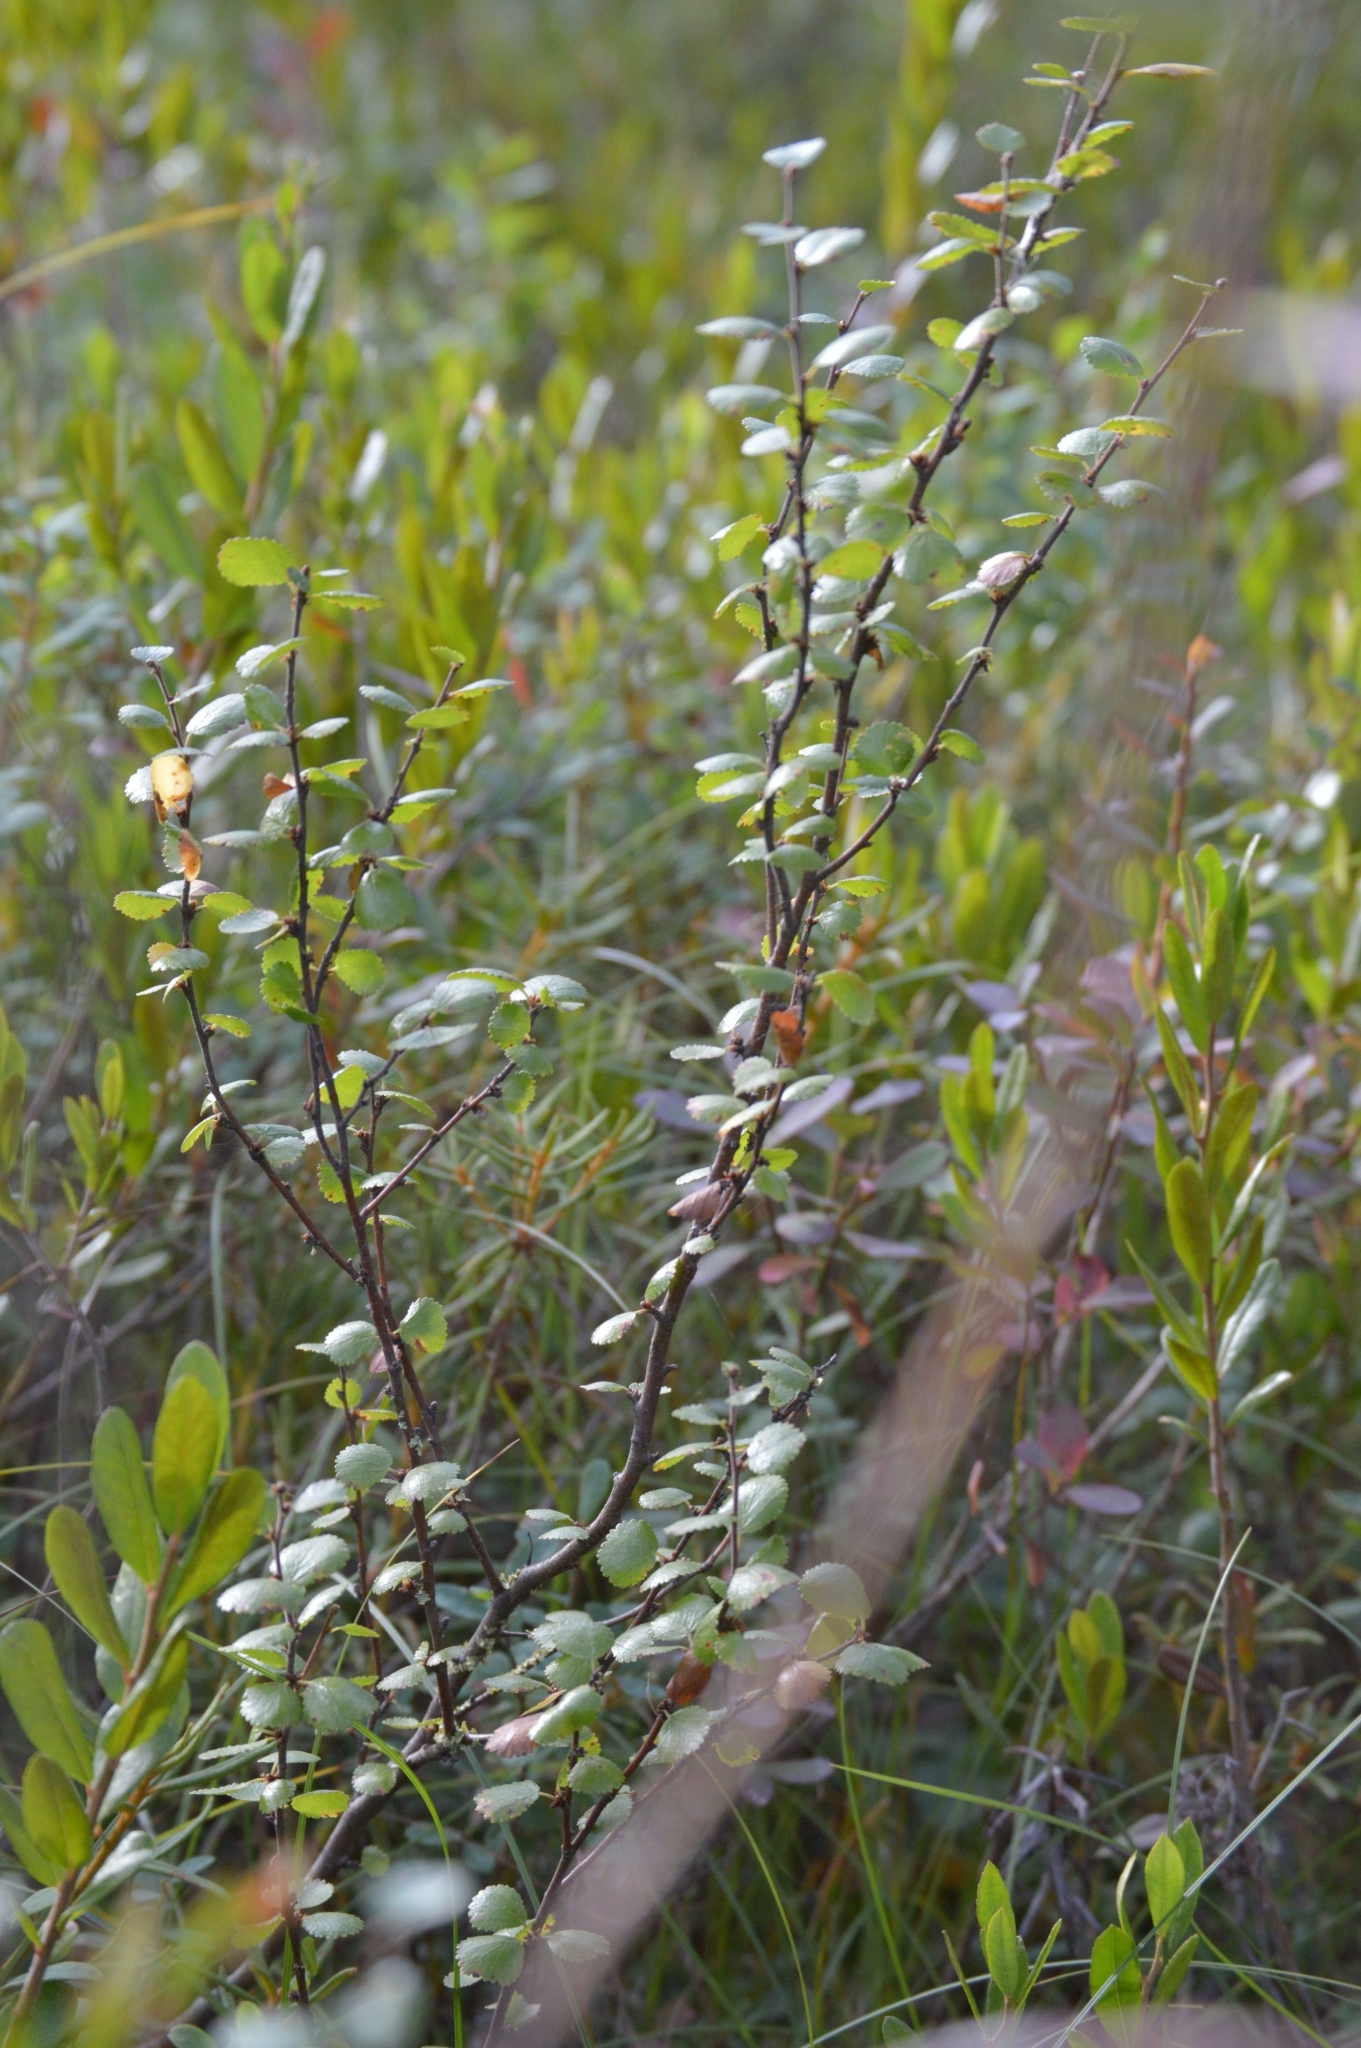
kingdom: Plantae
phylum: Tracheophyta
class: Magnoliopsida
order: Fagales
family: Betulaceae
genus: Betula
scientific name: Betula nana
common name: Arctic dwarf birch
